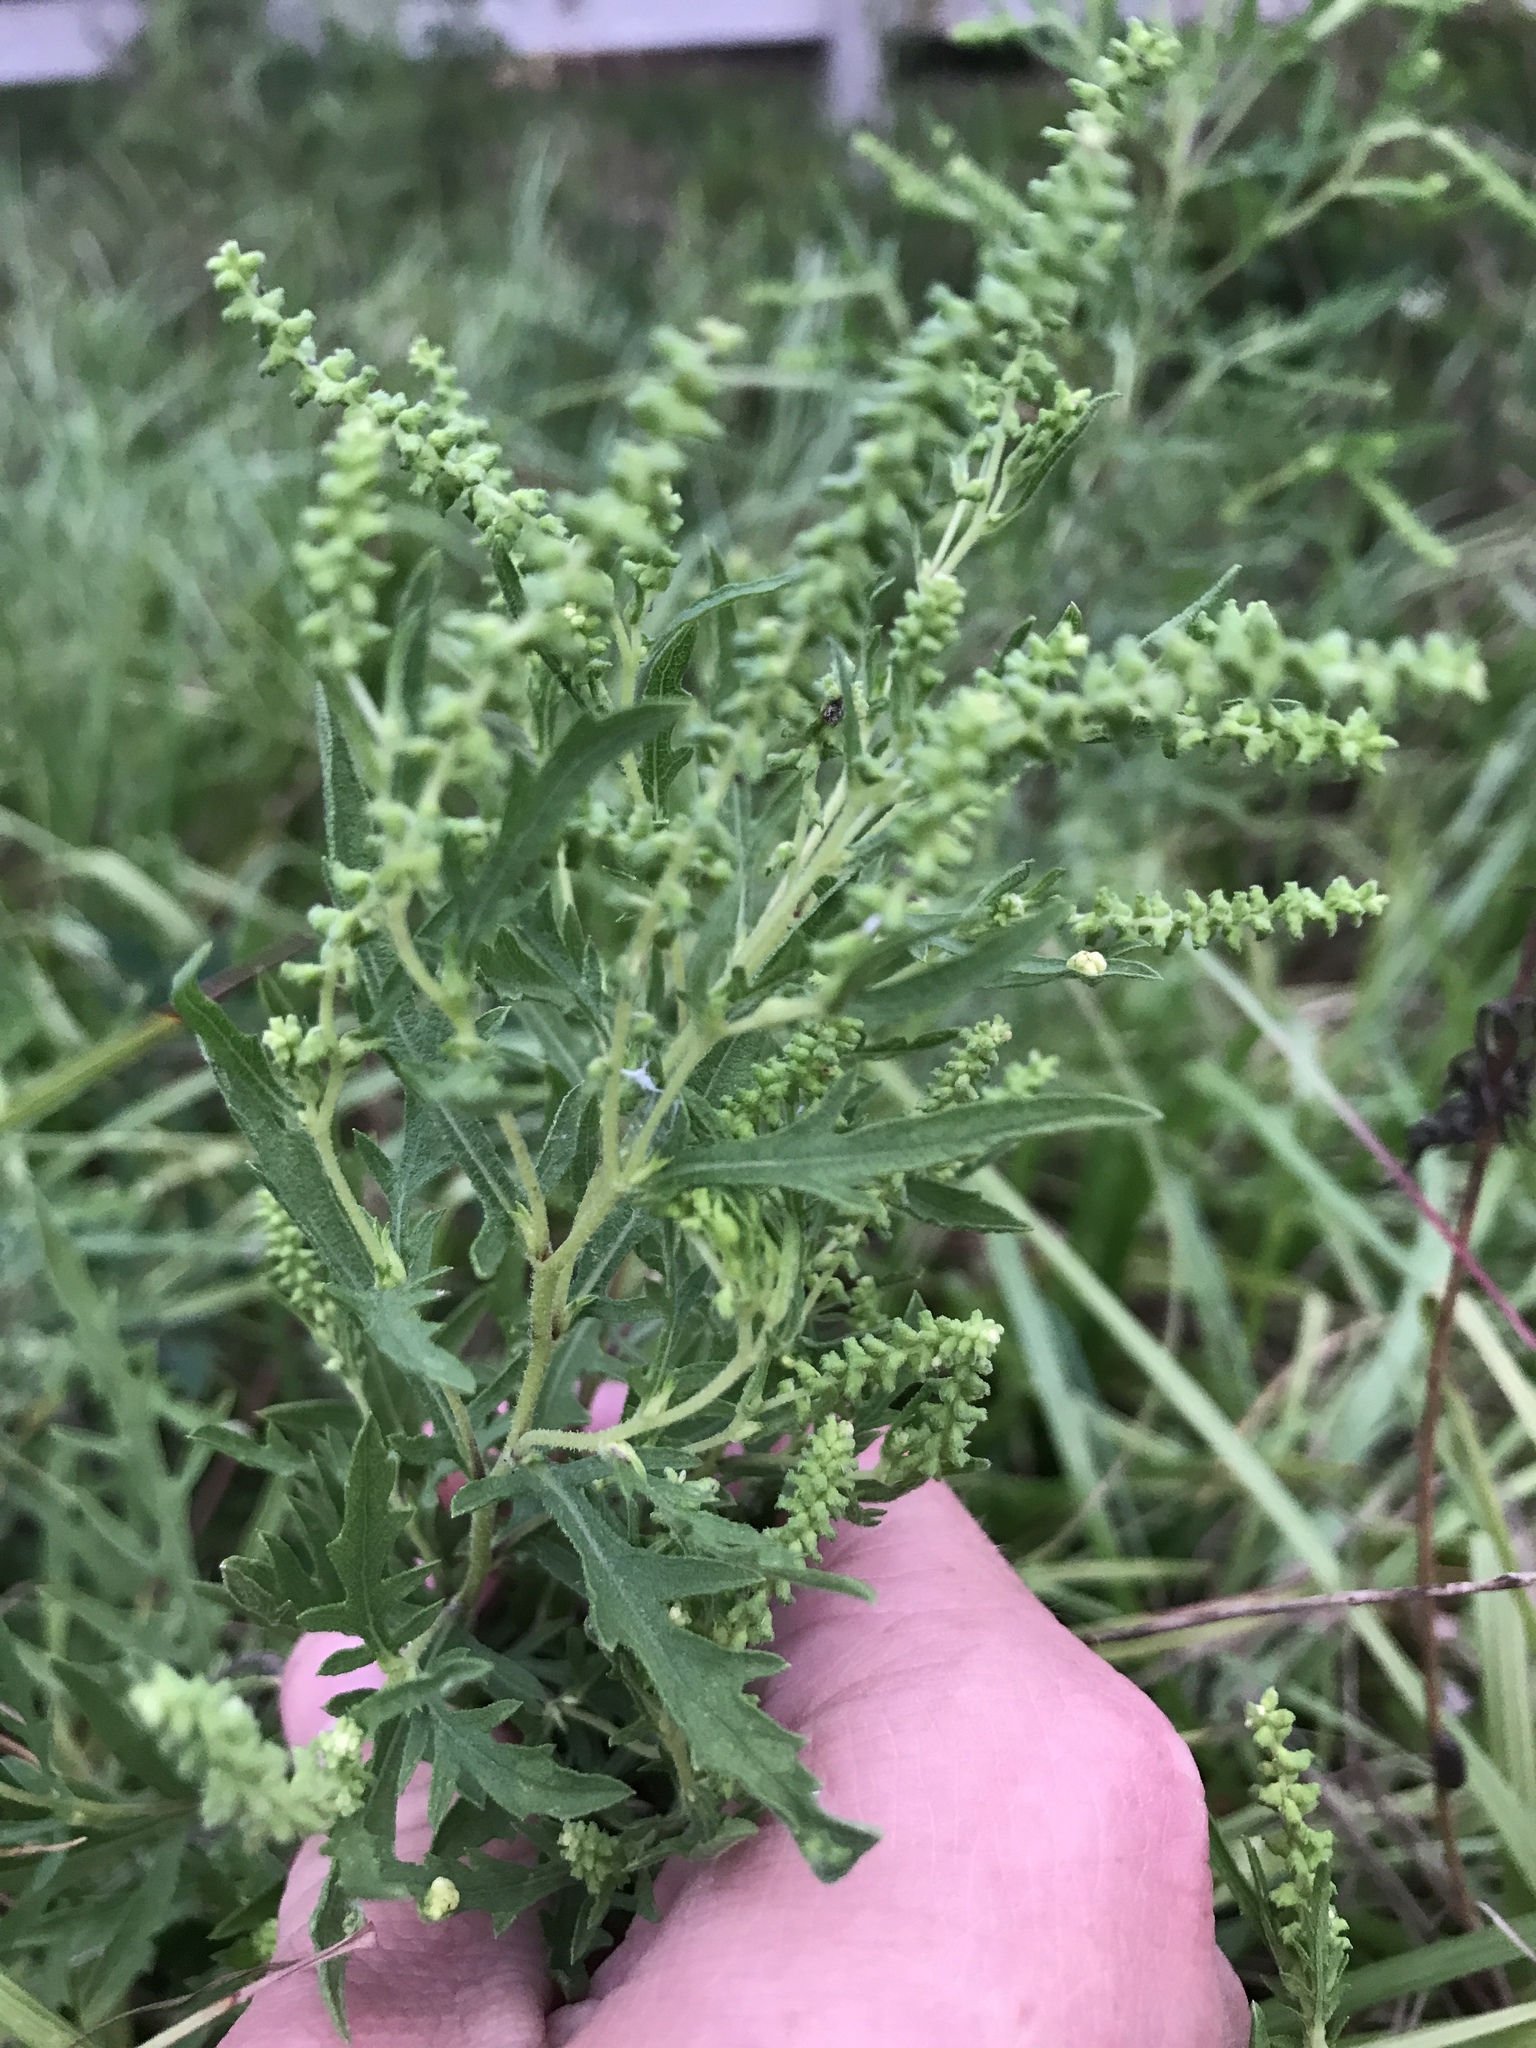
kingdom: Plantae
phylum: Tracheophyta
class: Magnoliopsida
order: Asterales
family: Asteraceae
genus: Ambrosia
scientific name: Ambrosia psilostachya
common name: Perennial ragweed
